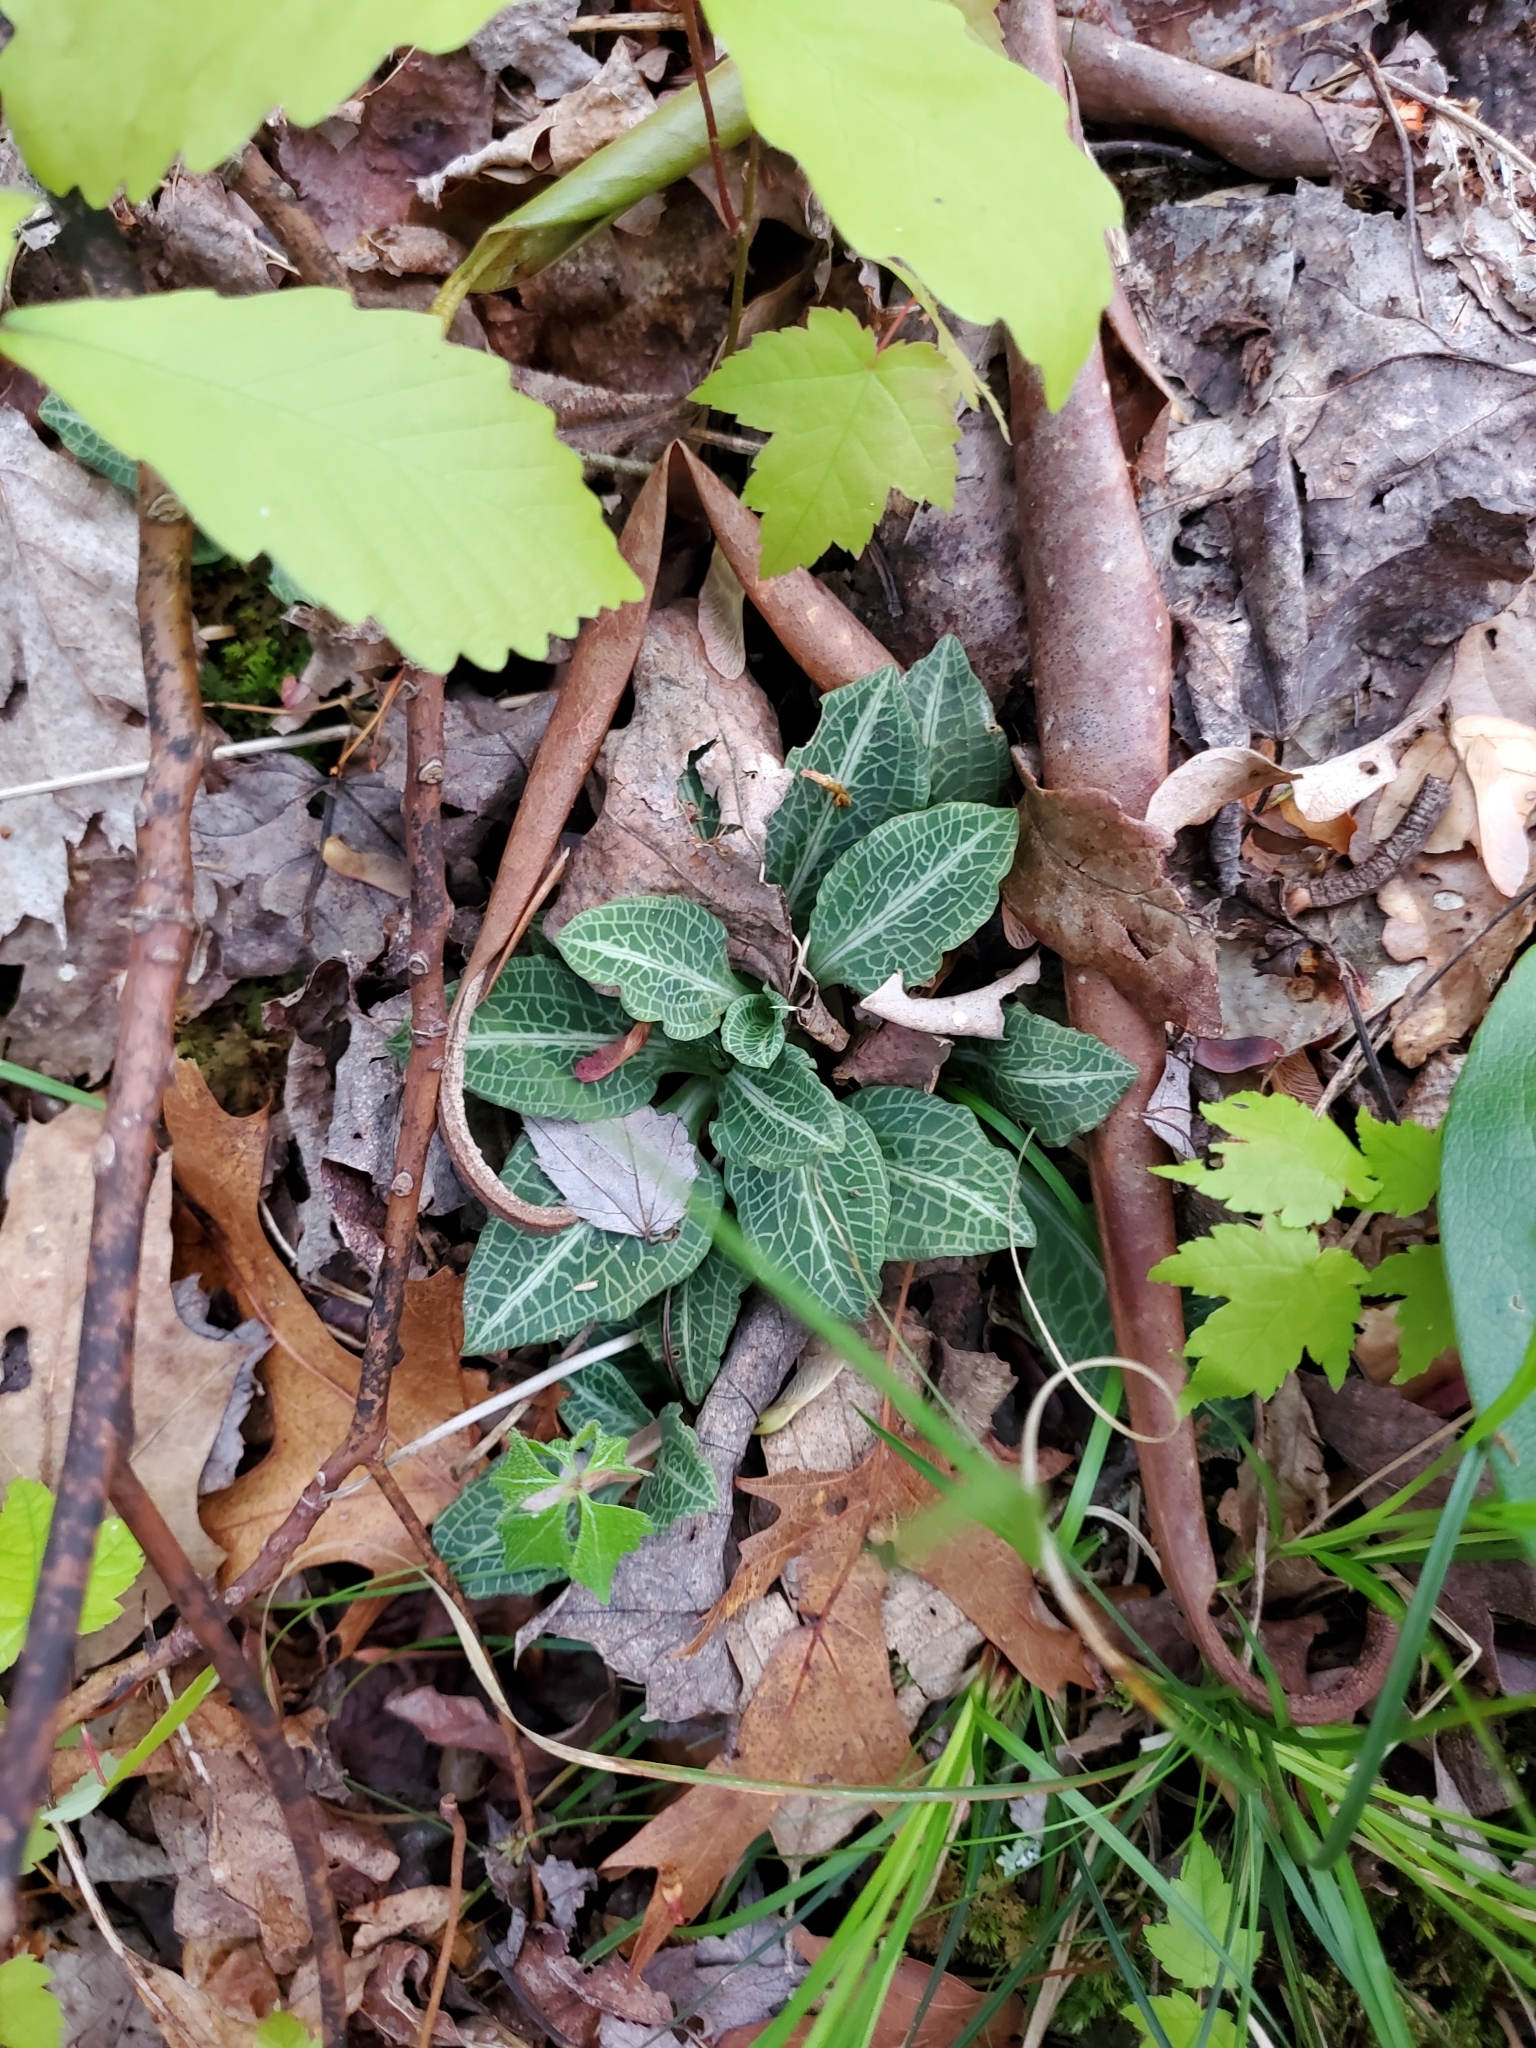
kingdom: Plantae
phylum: Tracheophyta
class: Liliopsida
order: Asparagales
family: Orchidaceae
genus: Goodyera
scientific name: Goodyera pubescens
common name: Downy rattlesnake-plantain
